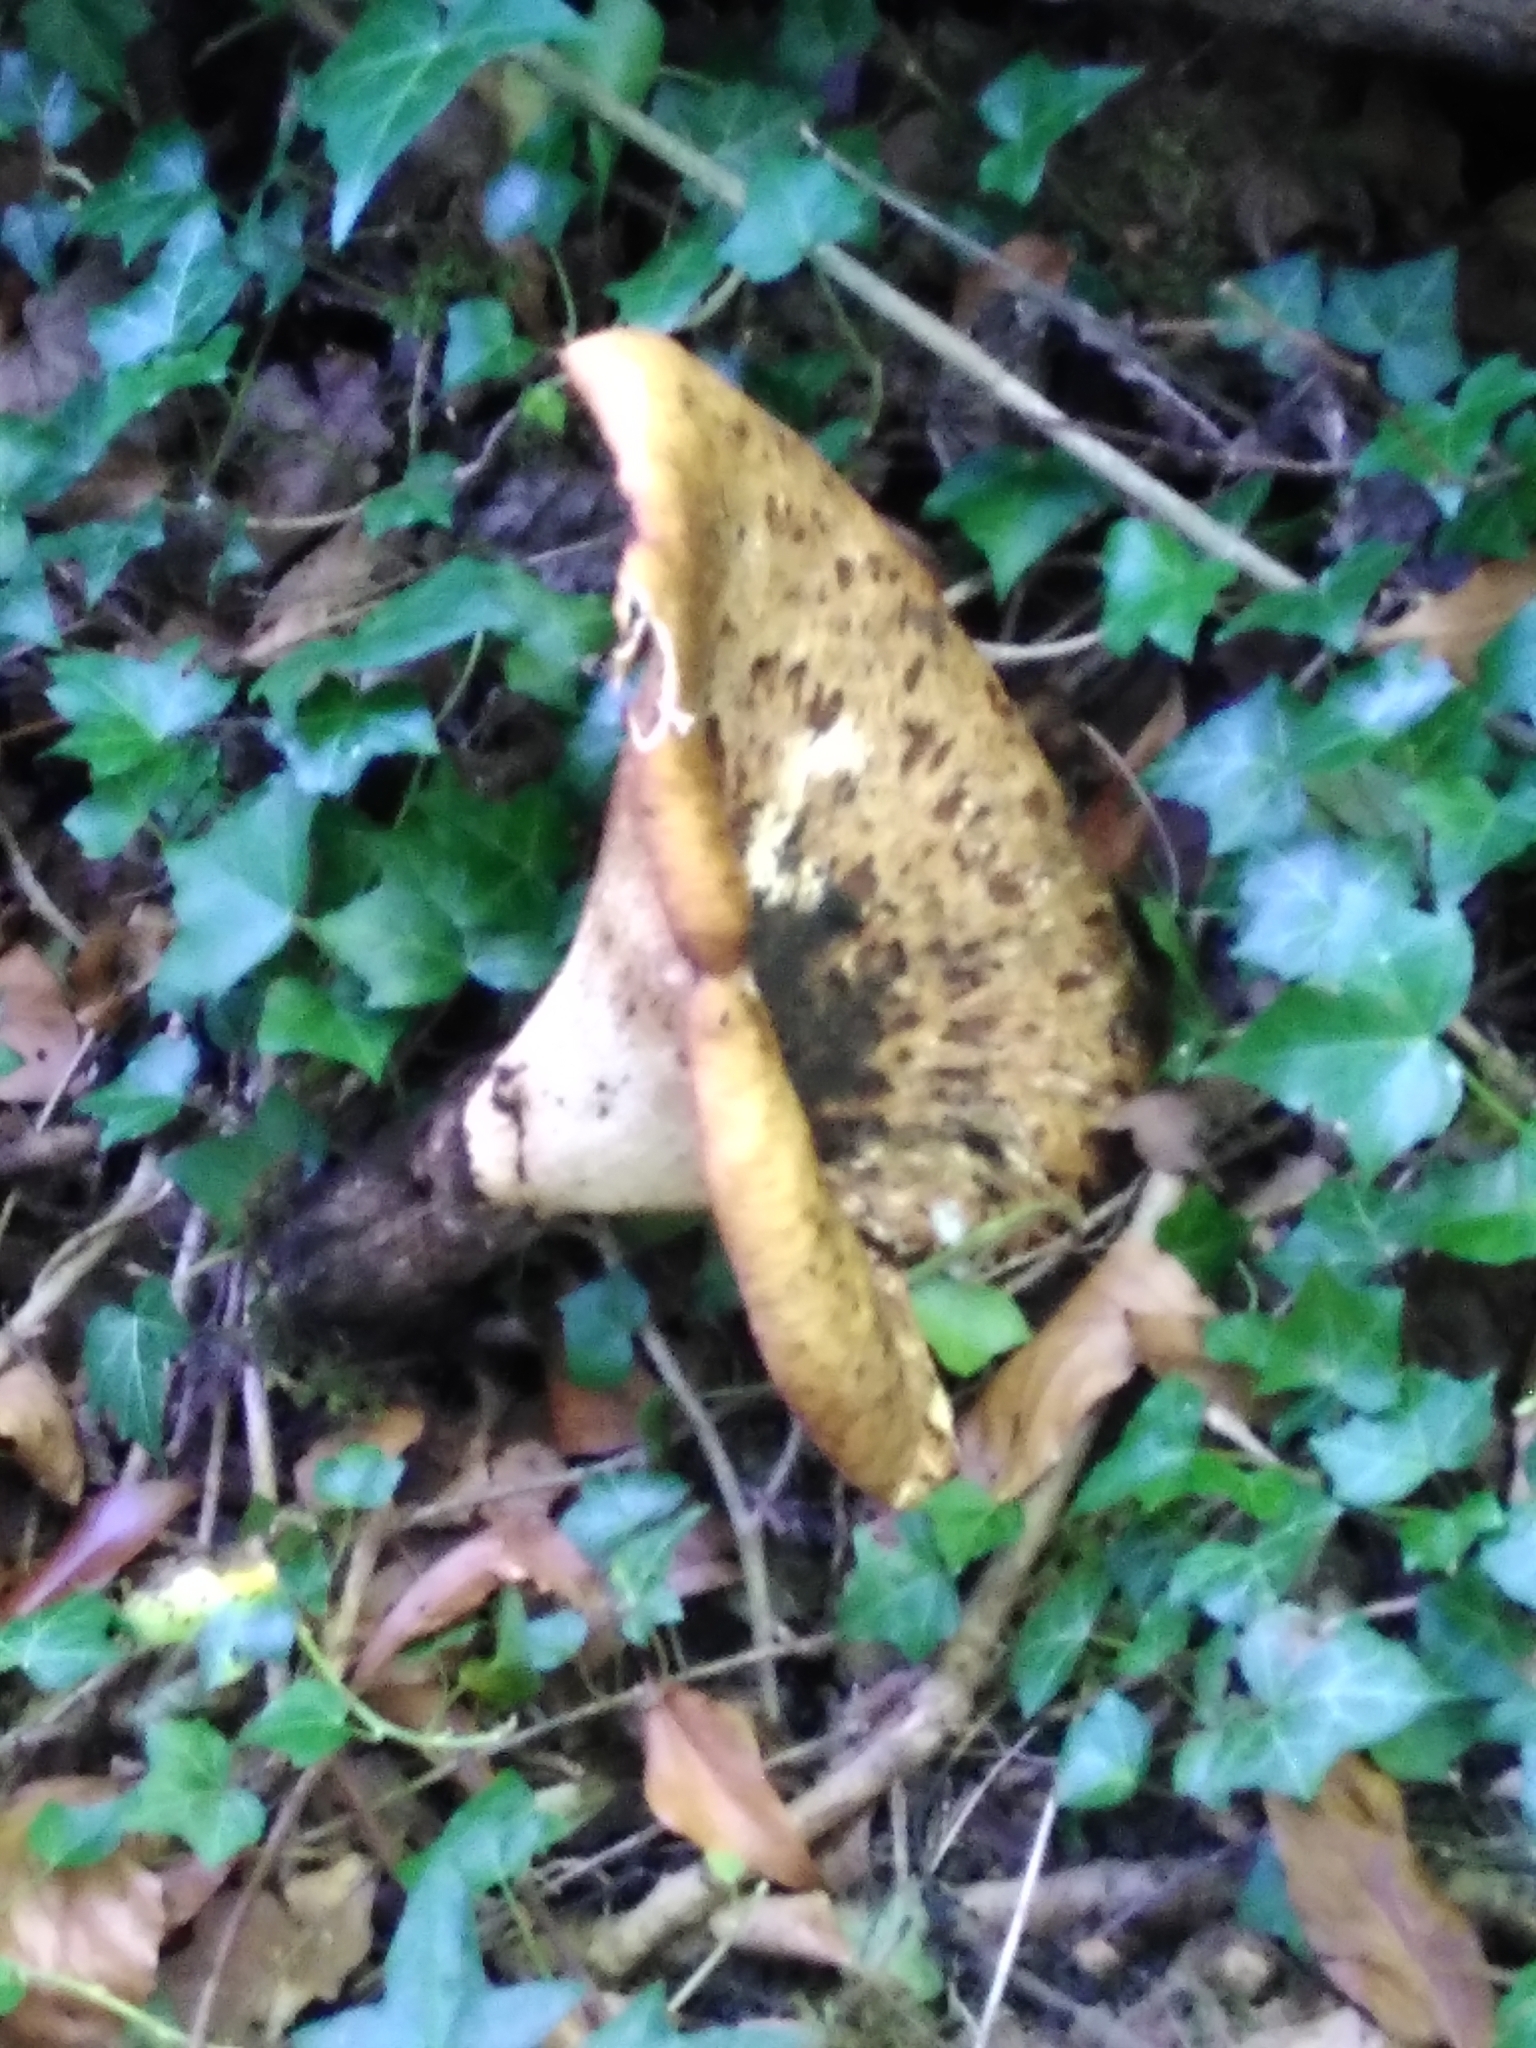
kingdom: Fungi
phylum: Basidiomycota
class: Agaricomycetes
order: Polyporales
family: Polyporaceae
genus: Cerioporus
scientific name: Cerioporus squamosus
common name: Dryad's saddle
